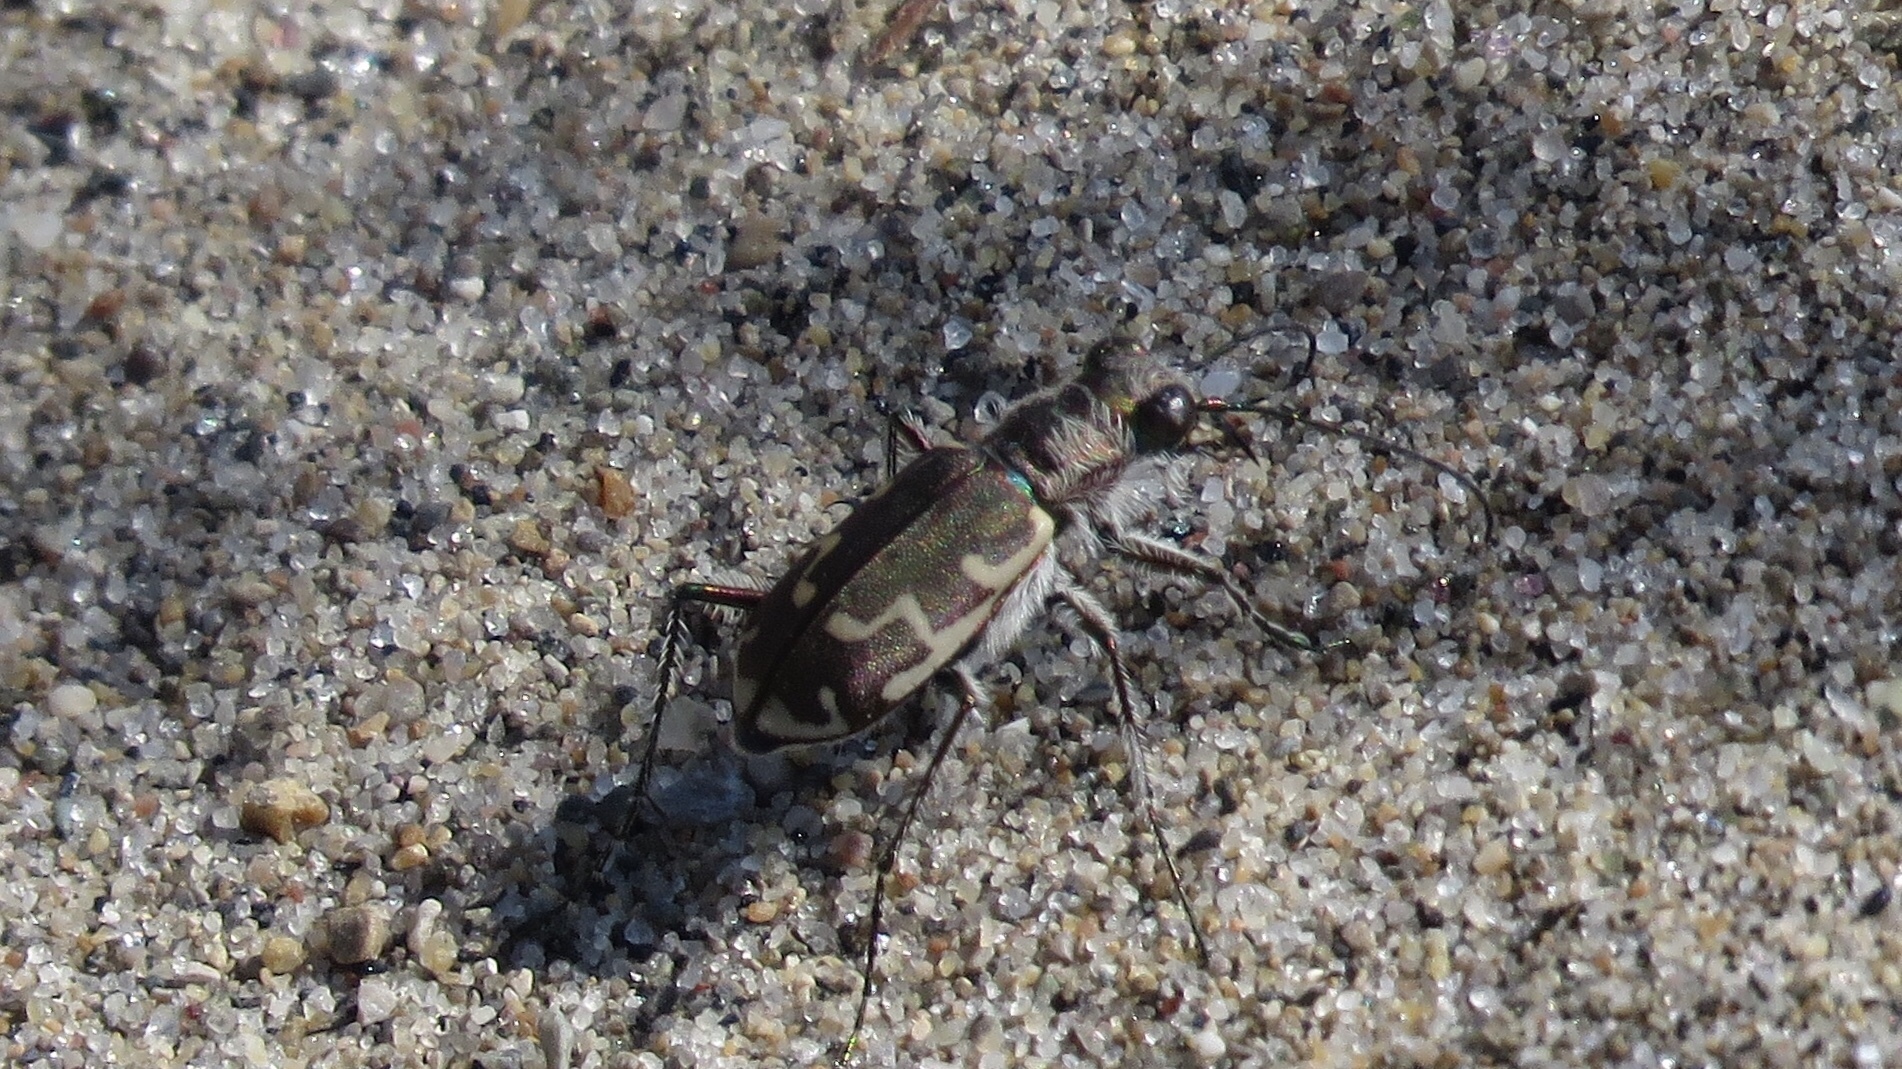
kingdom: Animalia
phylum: Arthropoda
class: Insecta
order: Coleoptera
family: Carabidae
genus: Cicindela
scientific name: Cicindela repanda
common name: Bronzed tiger beetle
